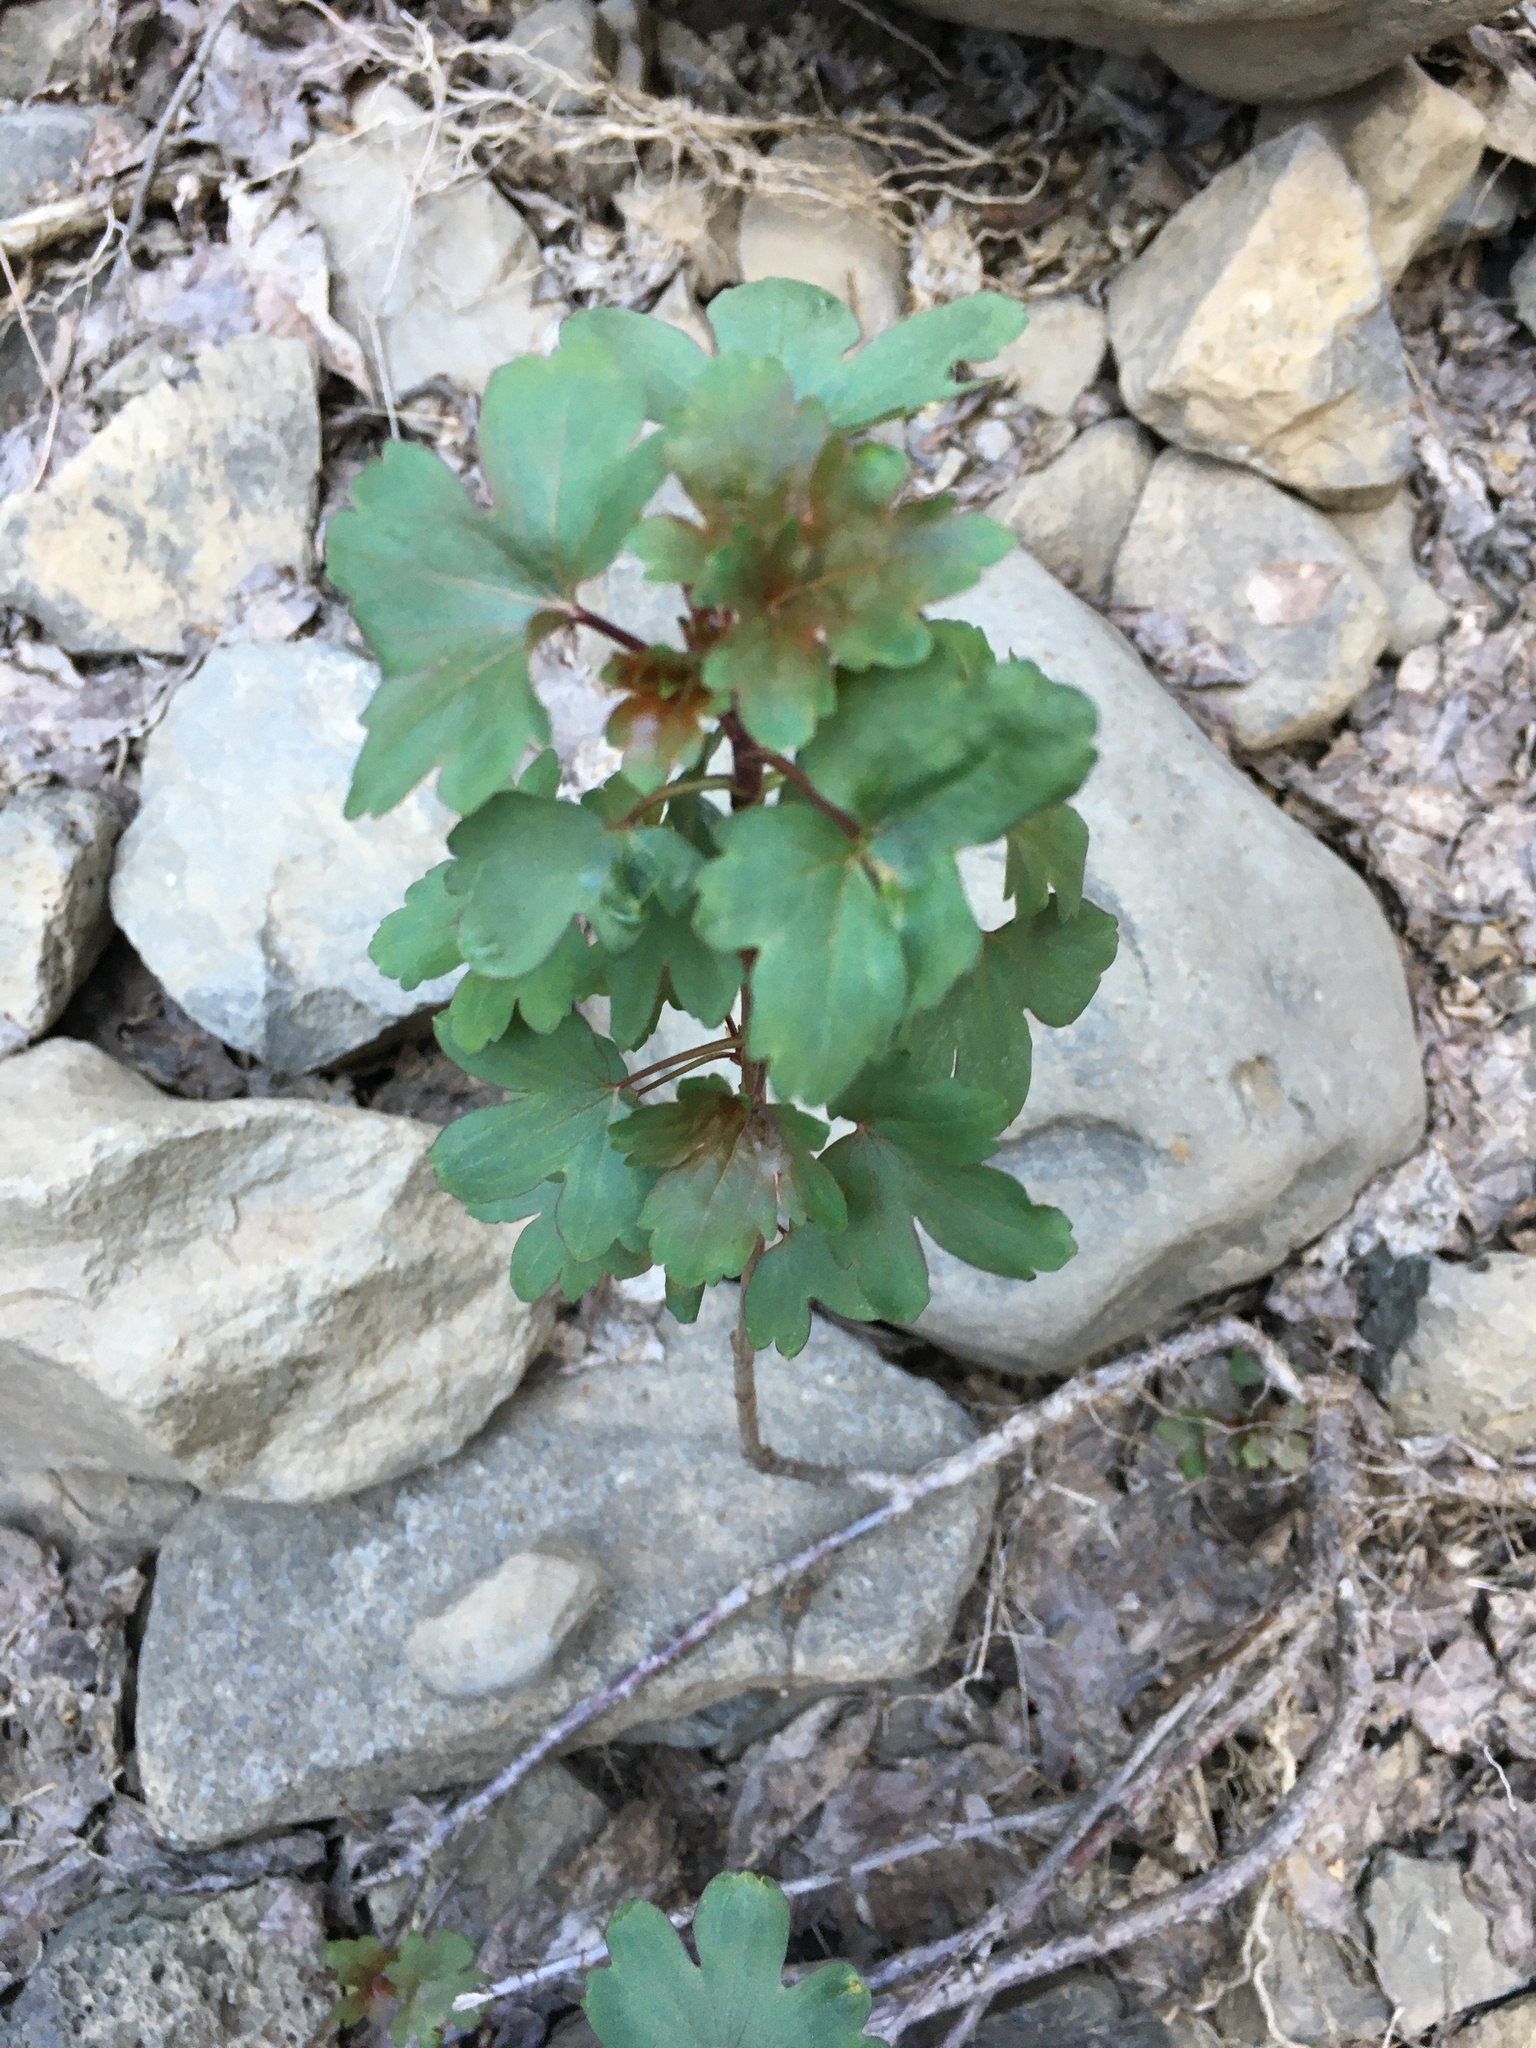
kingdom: Plantae
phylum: Tracheophyta
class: Magnoliopsida
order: Saxifragales
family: Grossulariaceae
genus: Ribes
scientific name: Ribes aureum
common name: Golden currant
